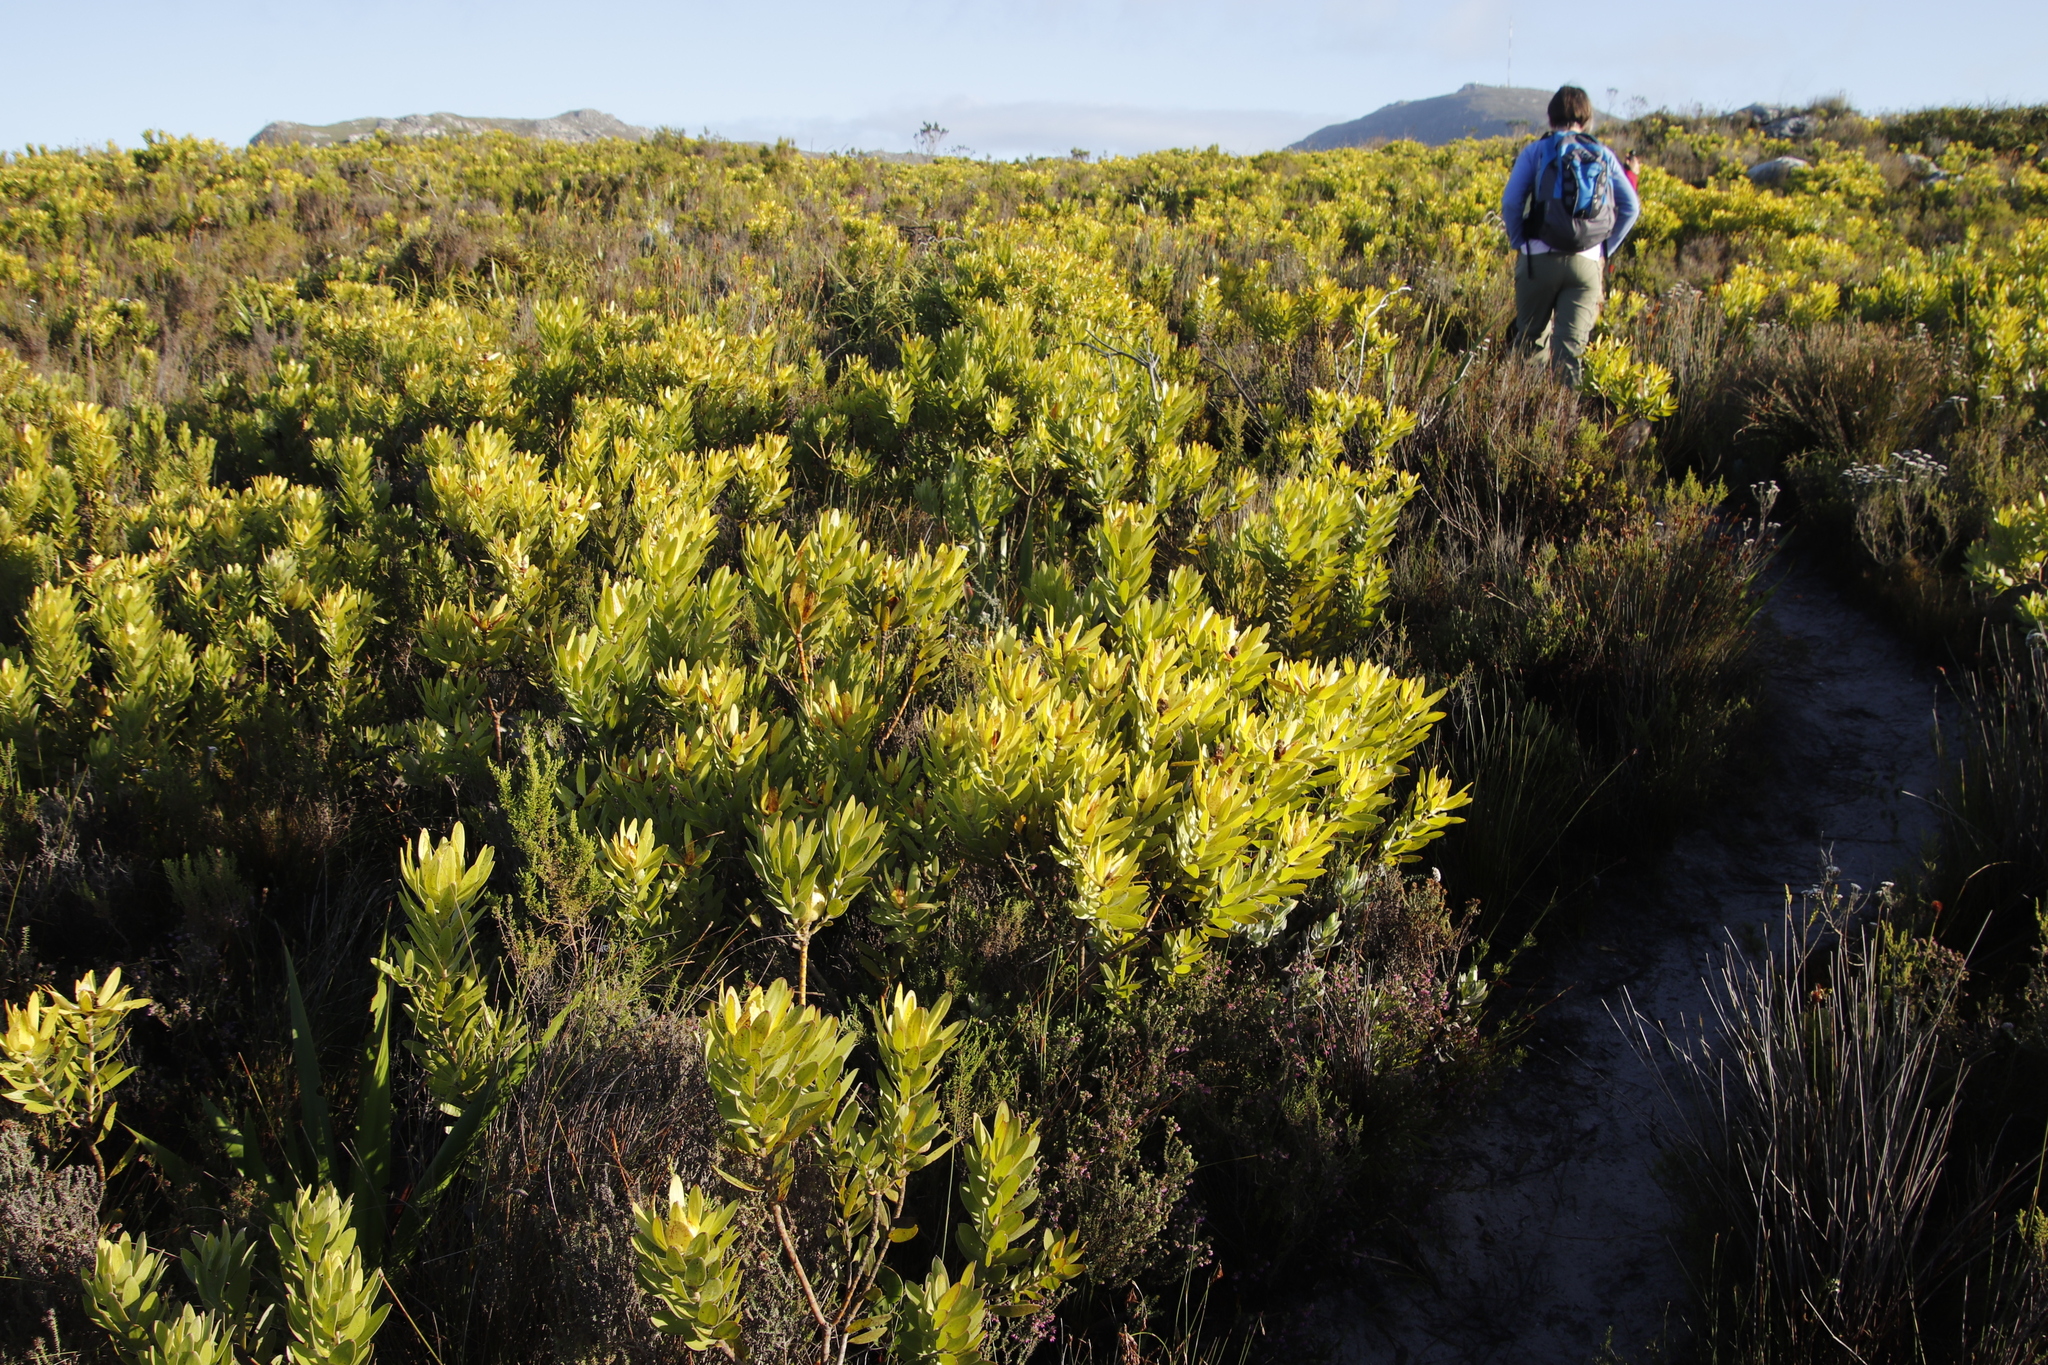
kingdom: Plantae
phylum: Tracheophyta
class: Magnoliopsida
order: Proteales
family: Proteaceae
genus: Leucadendron
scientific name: Leucadendron laureolum
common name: Golden sunshinebush
